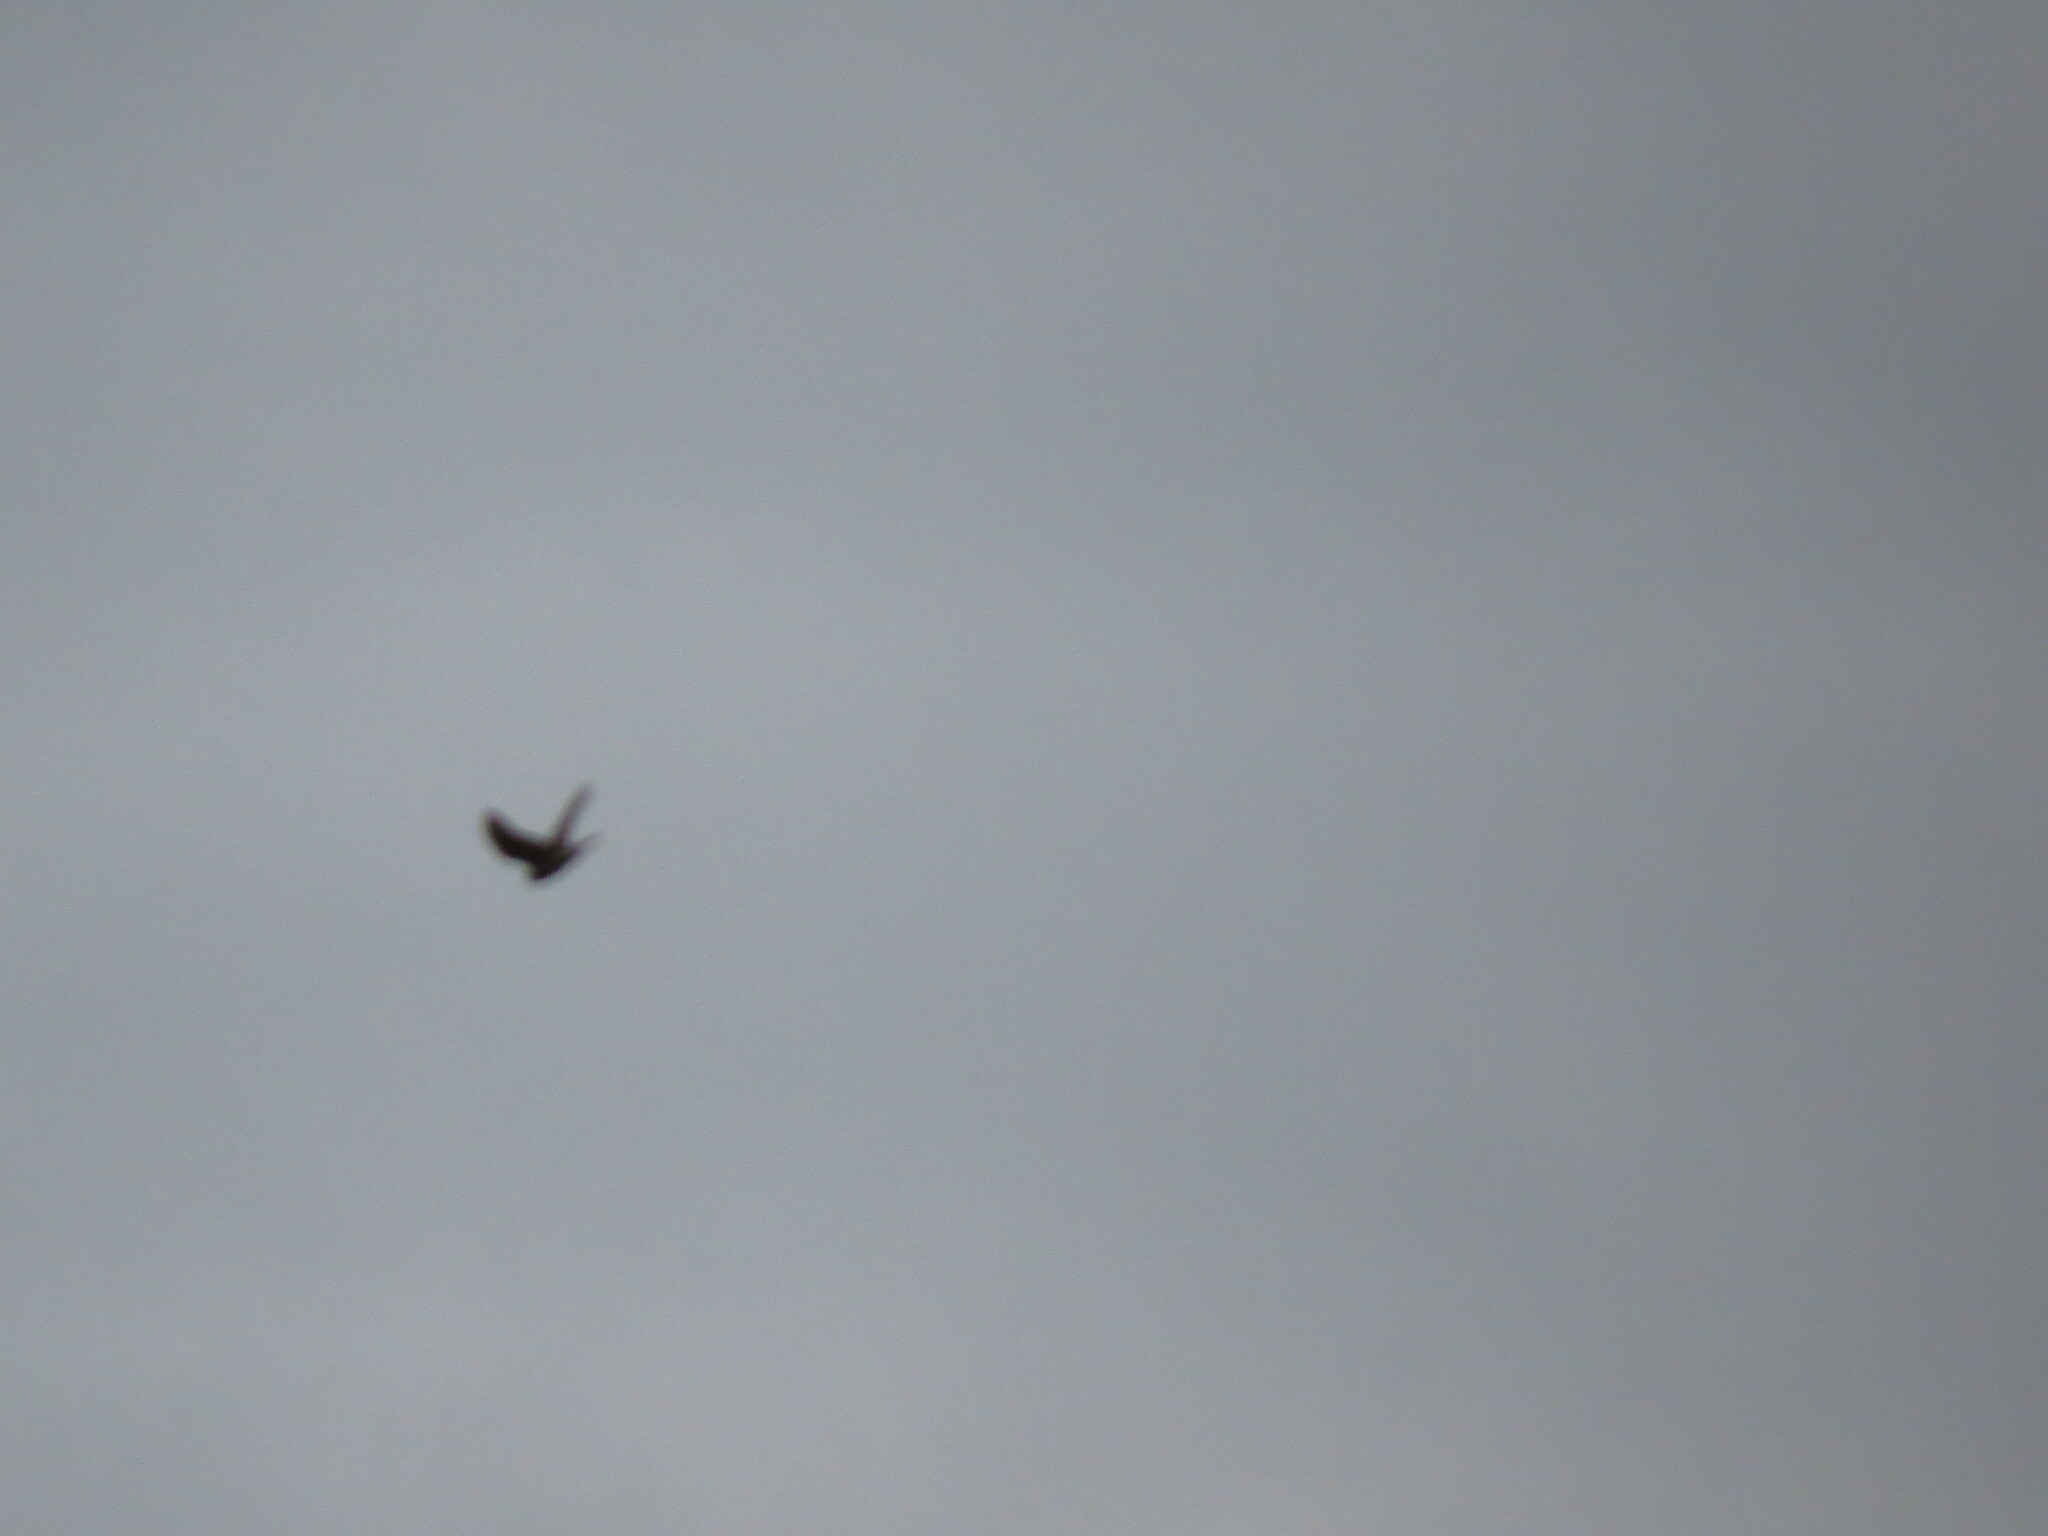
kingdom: Animalia
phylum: Chordata
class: Aves
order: Falconiformes
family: Falconidae
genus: Falco
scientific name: Falco tinnunculus
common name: Common kestrel
